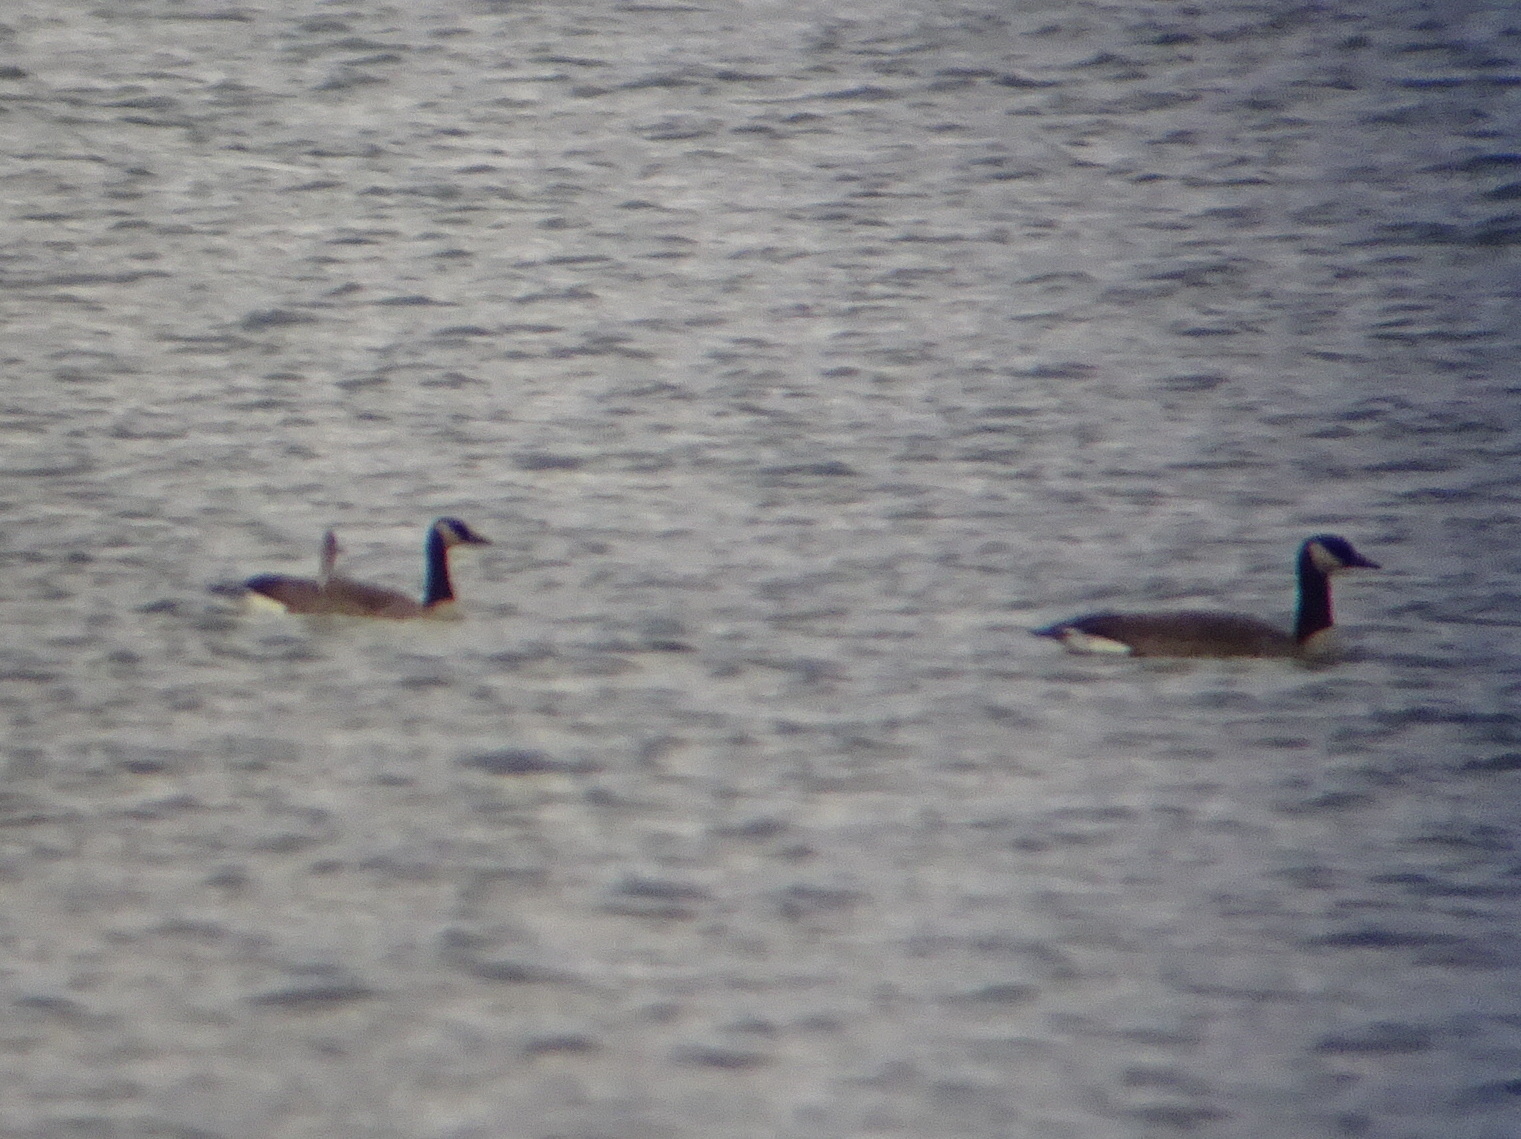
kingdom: Animalia
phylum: Chordata
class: Aves
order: Anseriformes
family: Anatidae
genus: Branta
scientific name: Branta canadensis
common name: Canada goose
